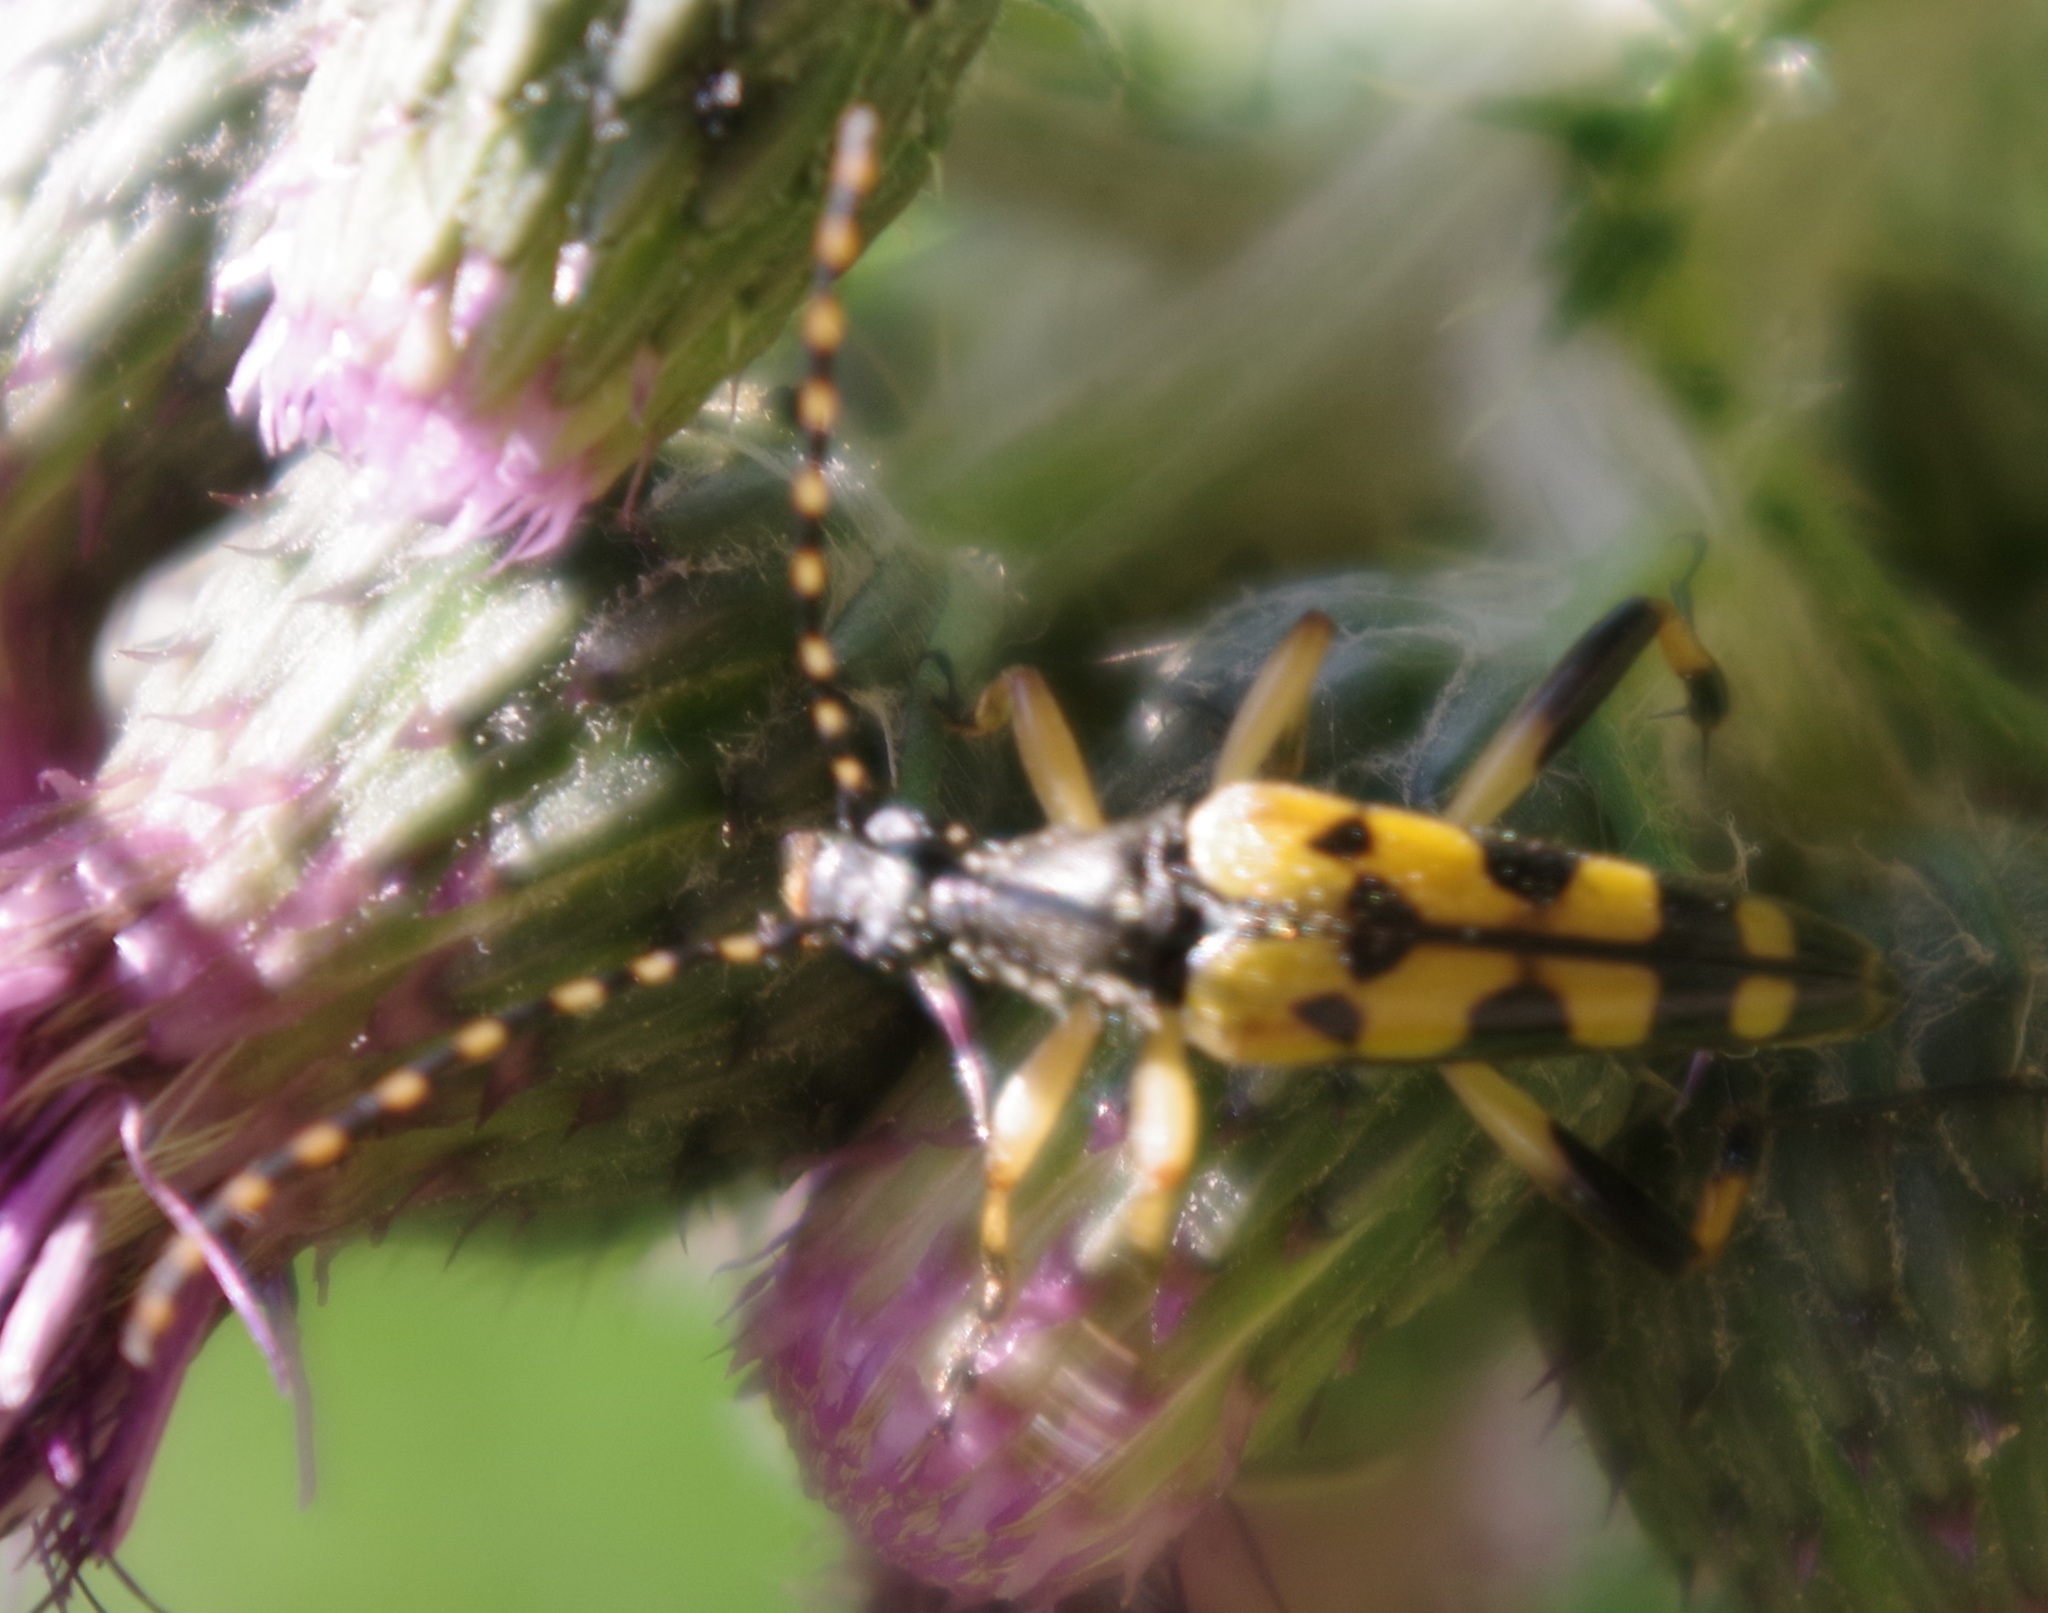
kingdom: Animalia
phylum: Arthropoda
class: Insecta
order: Coleoptera
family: Cerambycidae
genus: Rutpela
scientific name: Rutpela maculata
